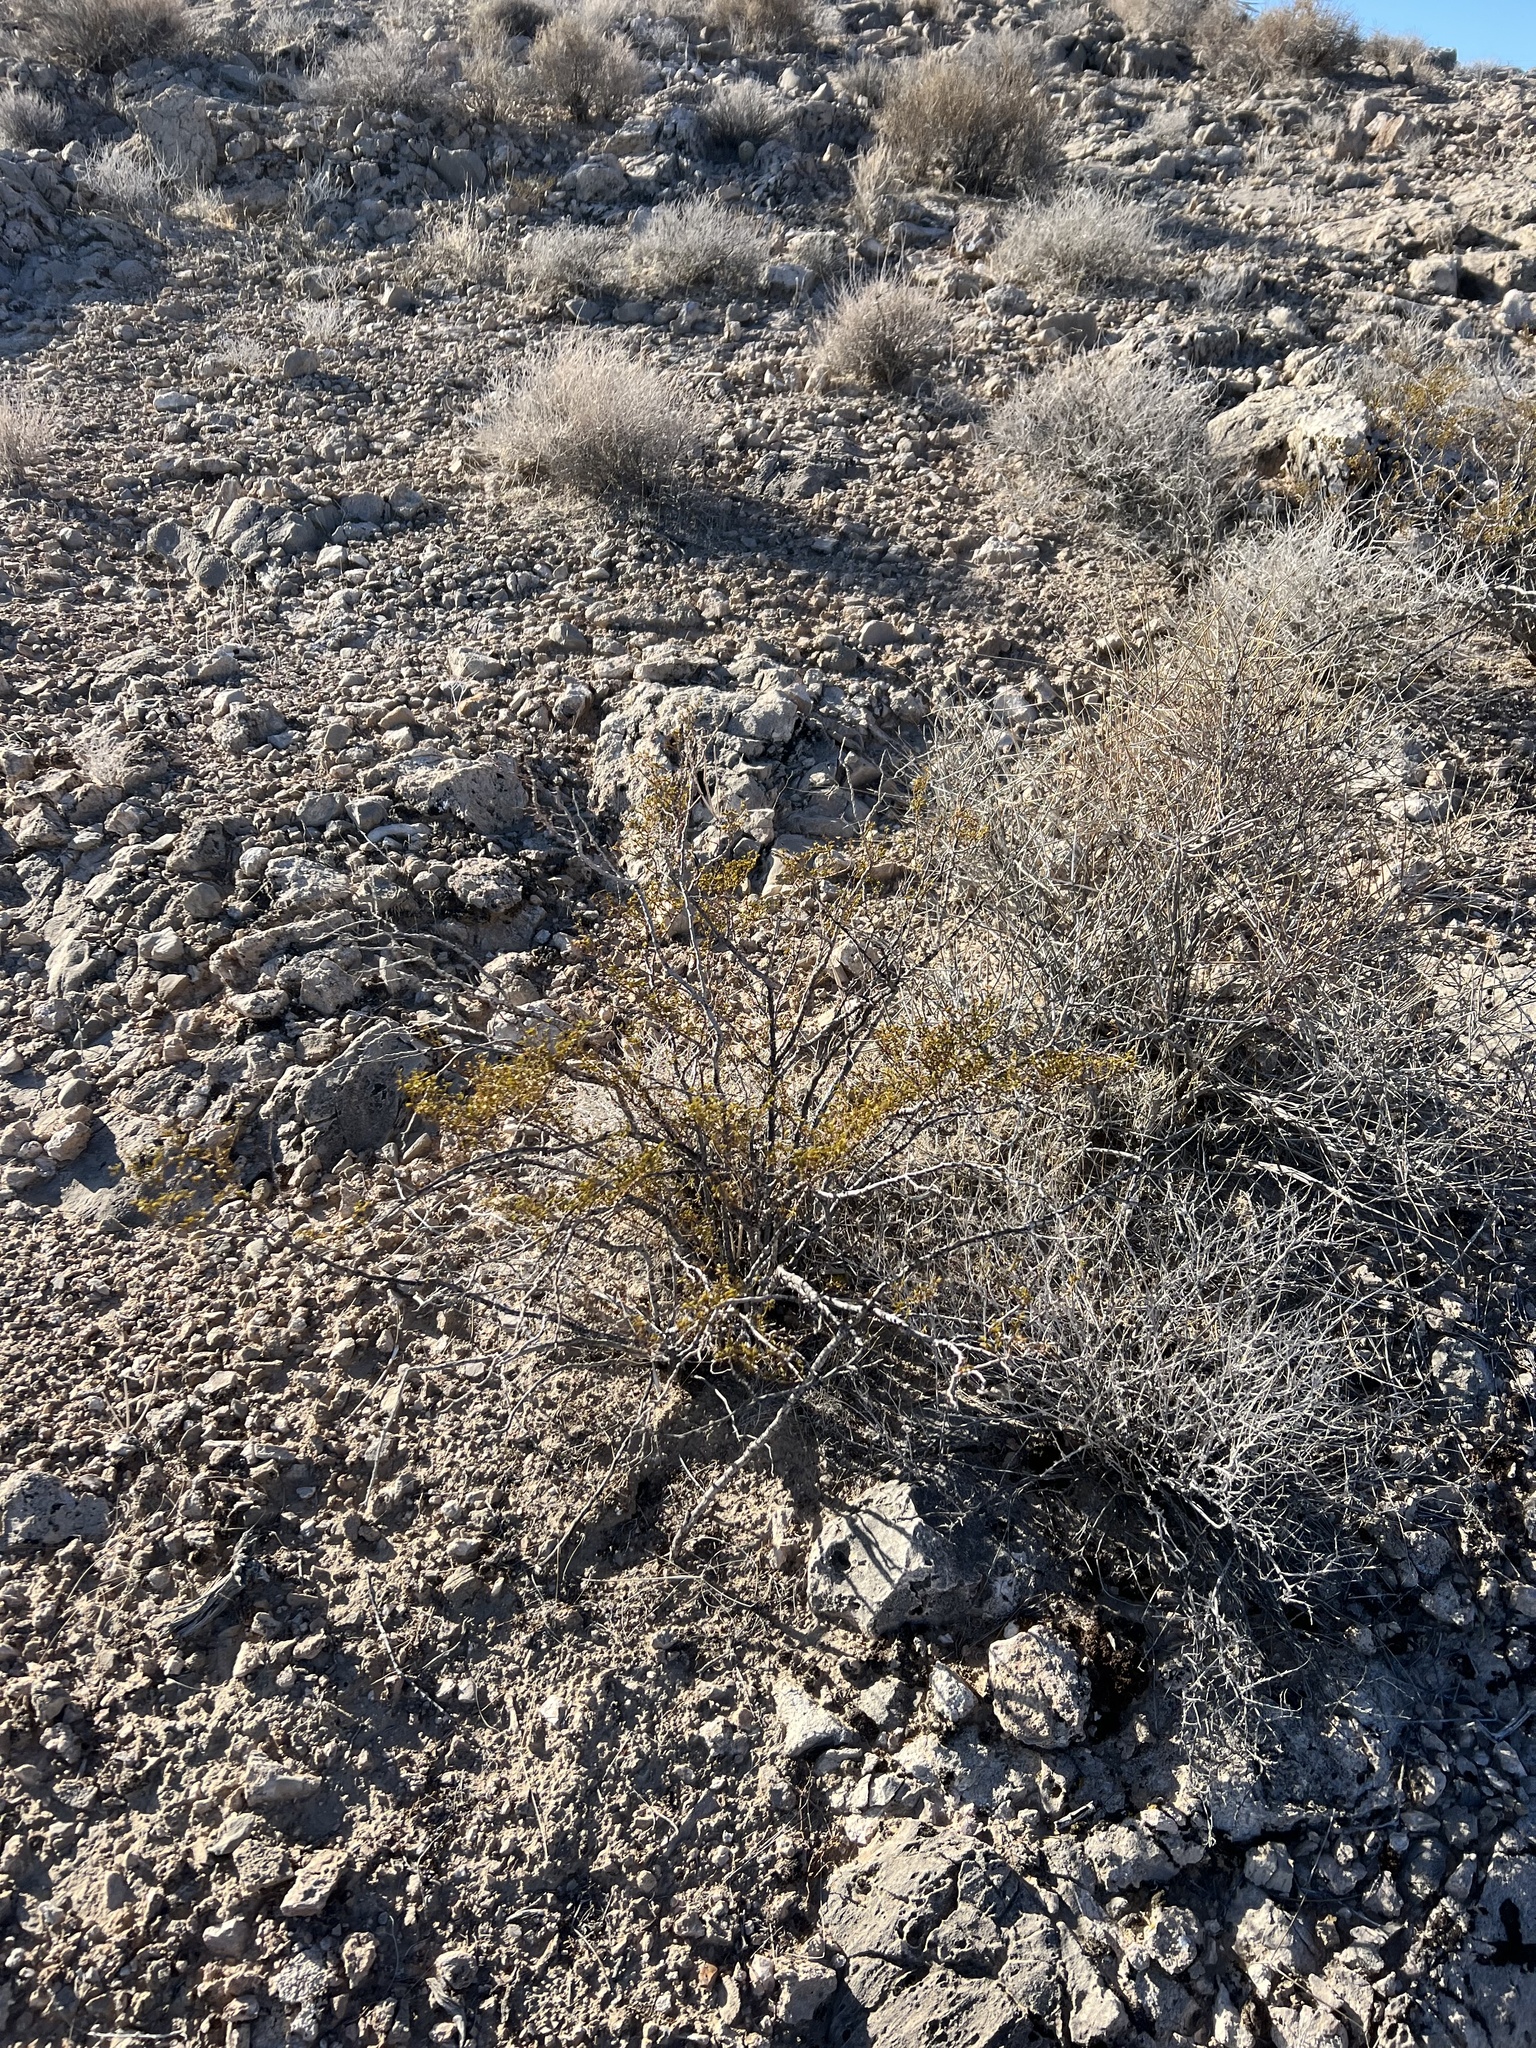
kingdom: Plantae
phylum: Tracheophyta
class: Magnoliopsida
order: Zygophyllales
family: Zygophyllaceae
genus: Larrea
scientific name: Larrea tridentata
